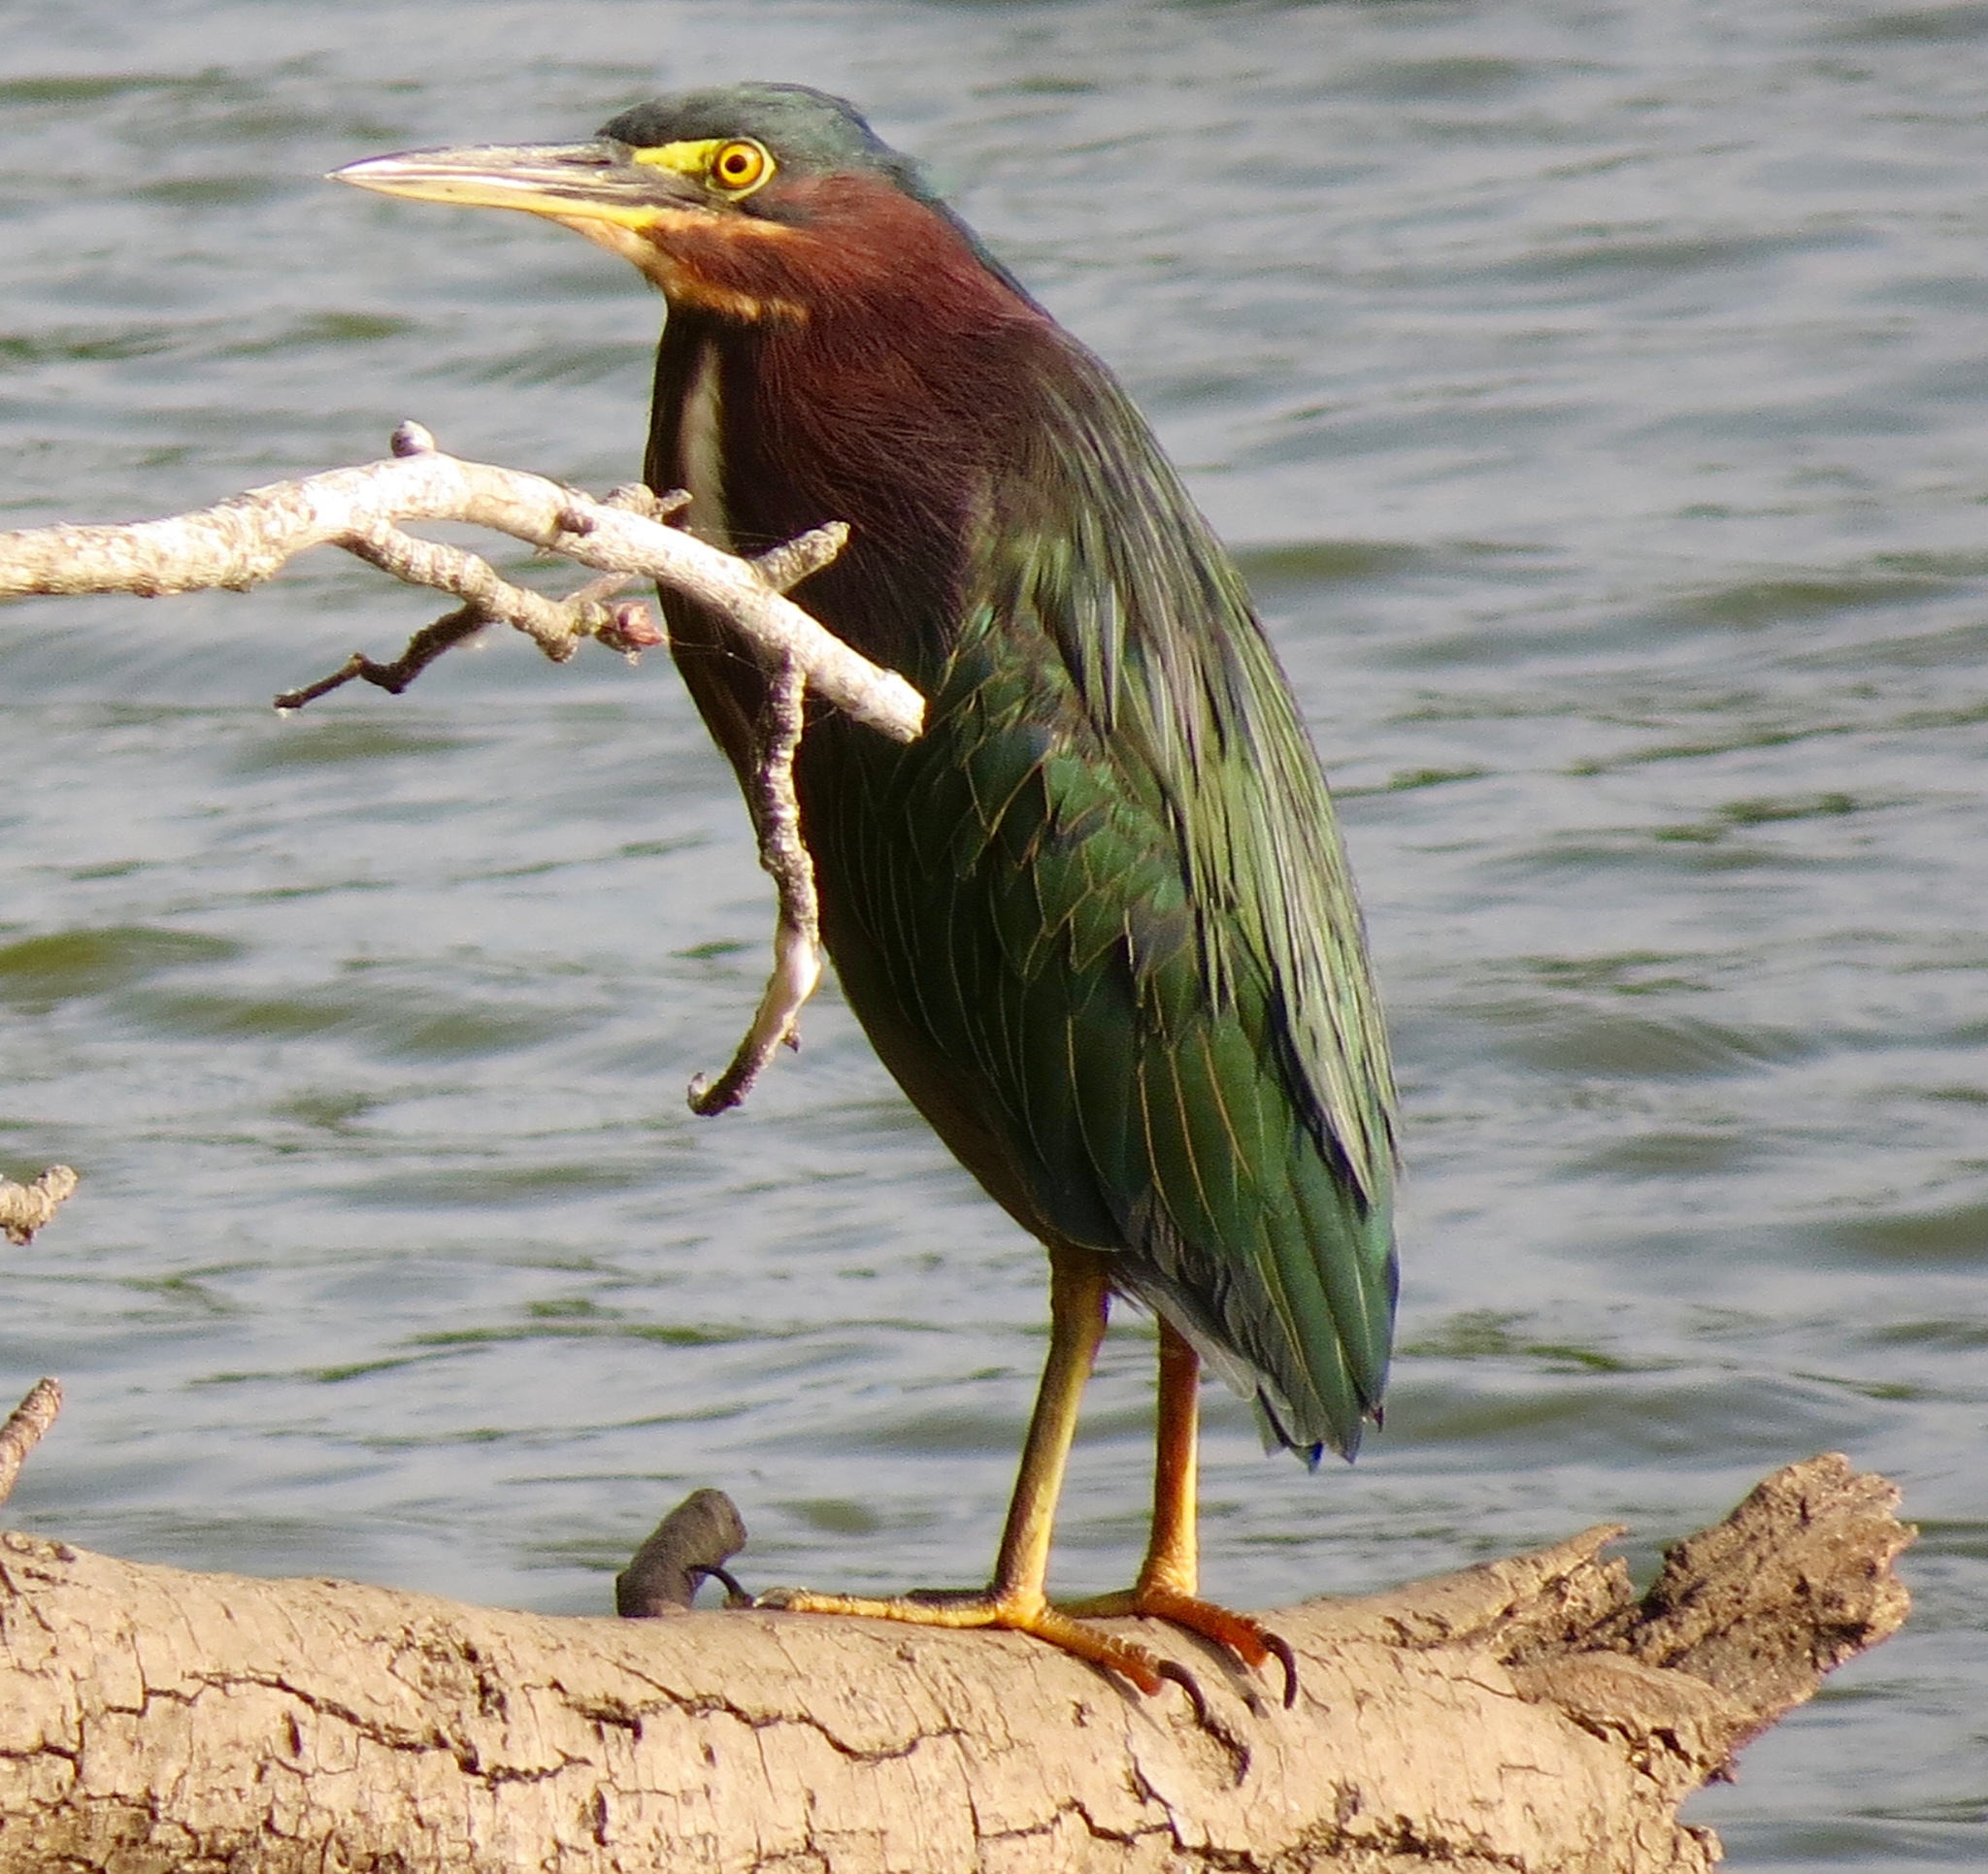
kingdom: Animalia
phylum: Chordata
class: Aves
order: Pelecaniformes
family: Ardeidae
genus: Butorides
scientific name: Butorides virescens
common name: Green heron
